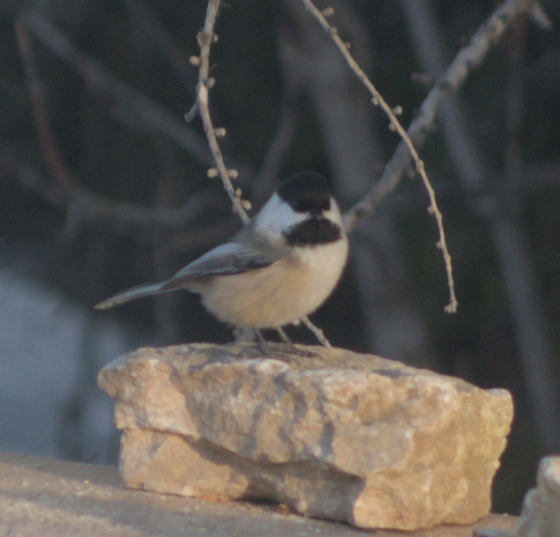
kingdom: Animalia
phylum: Chordata
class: Aves
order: Passeriformes
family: Paridae
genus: Poecile
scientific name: Poecile atricapillus
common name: Black-capped chickadee
